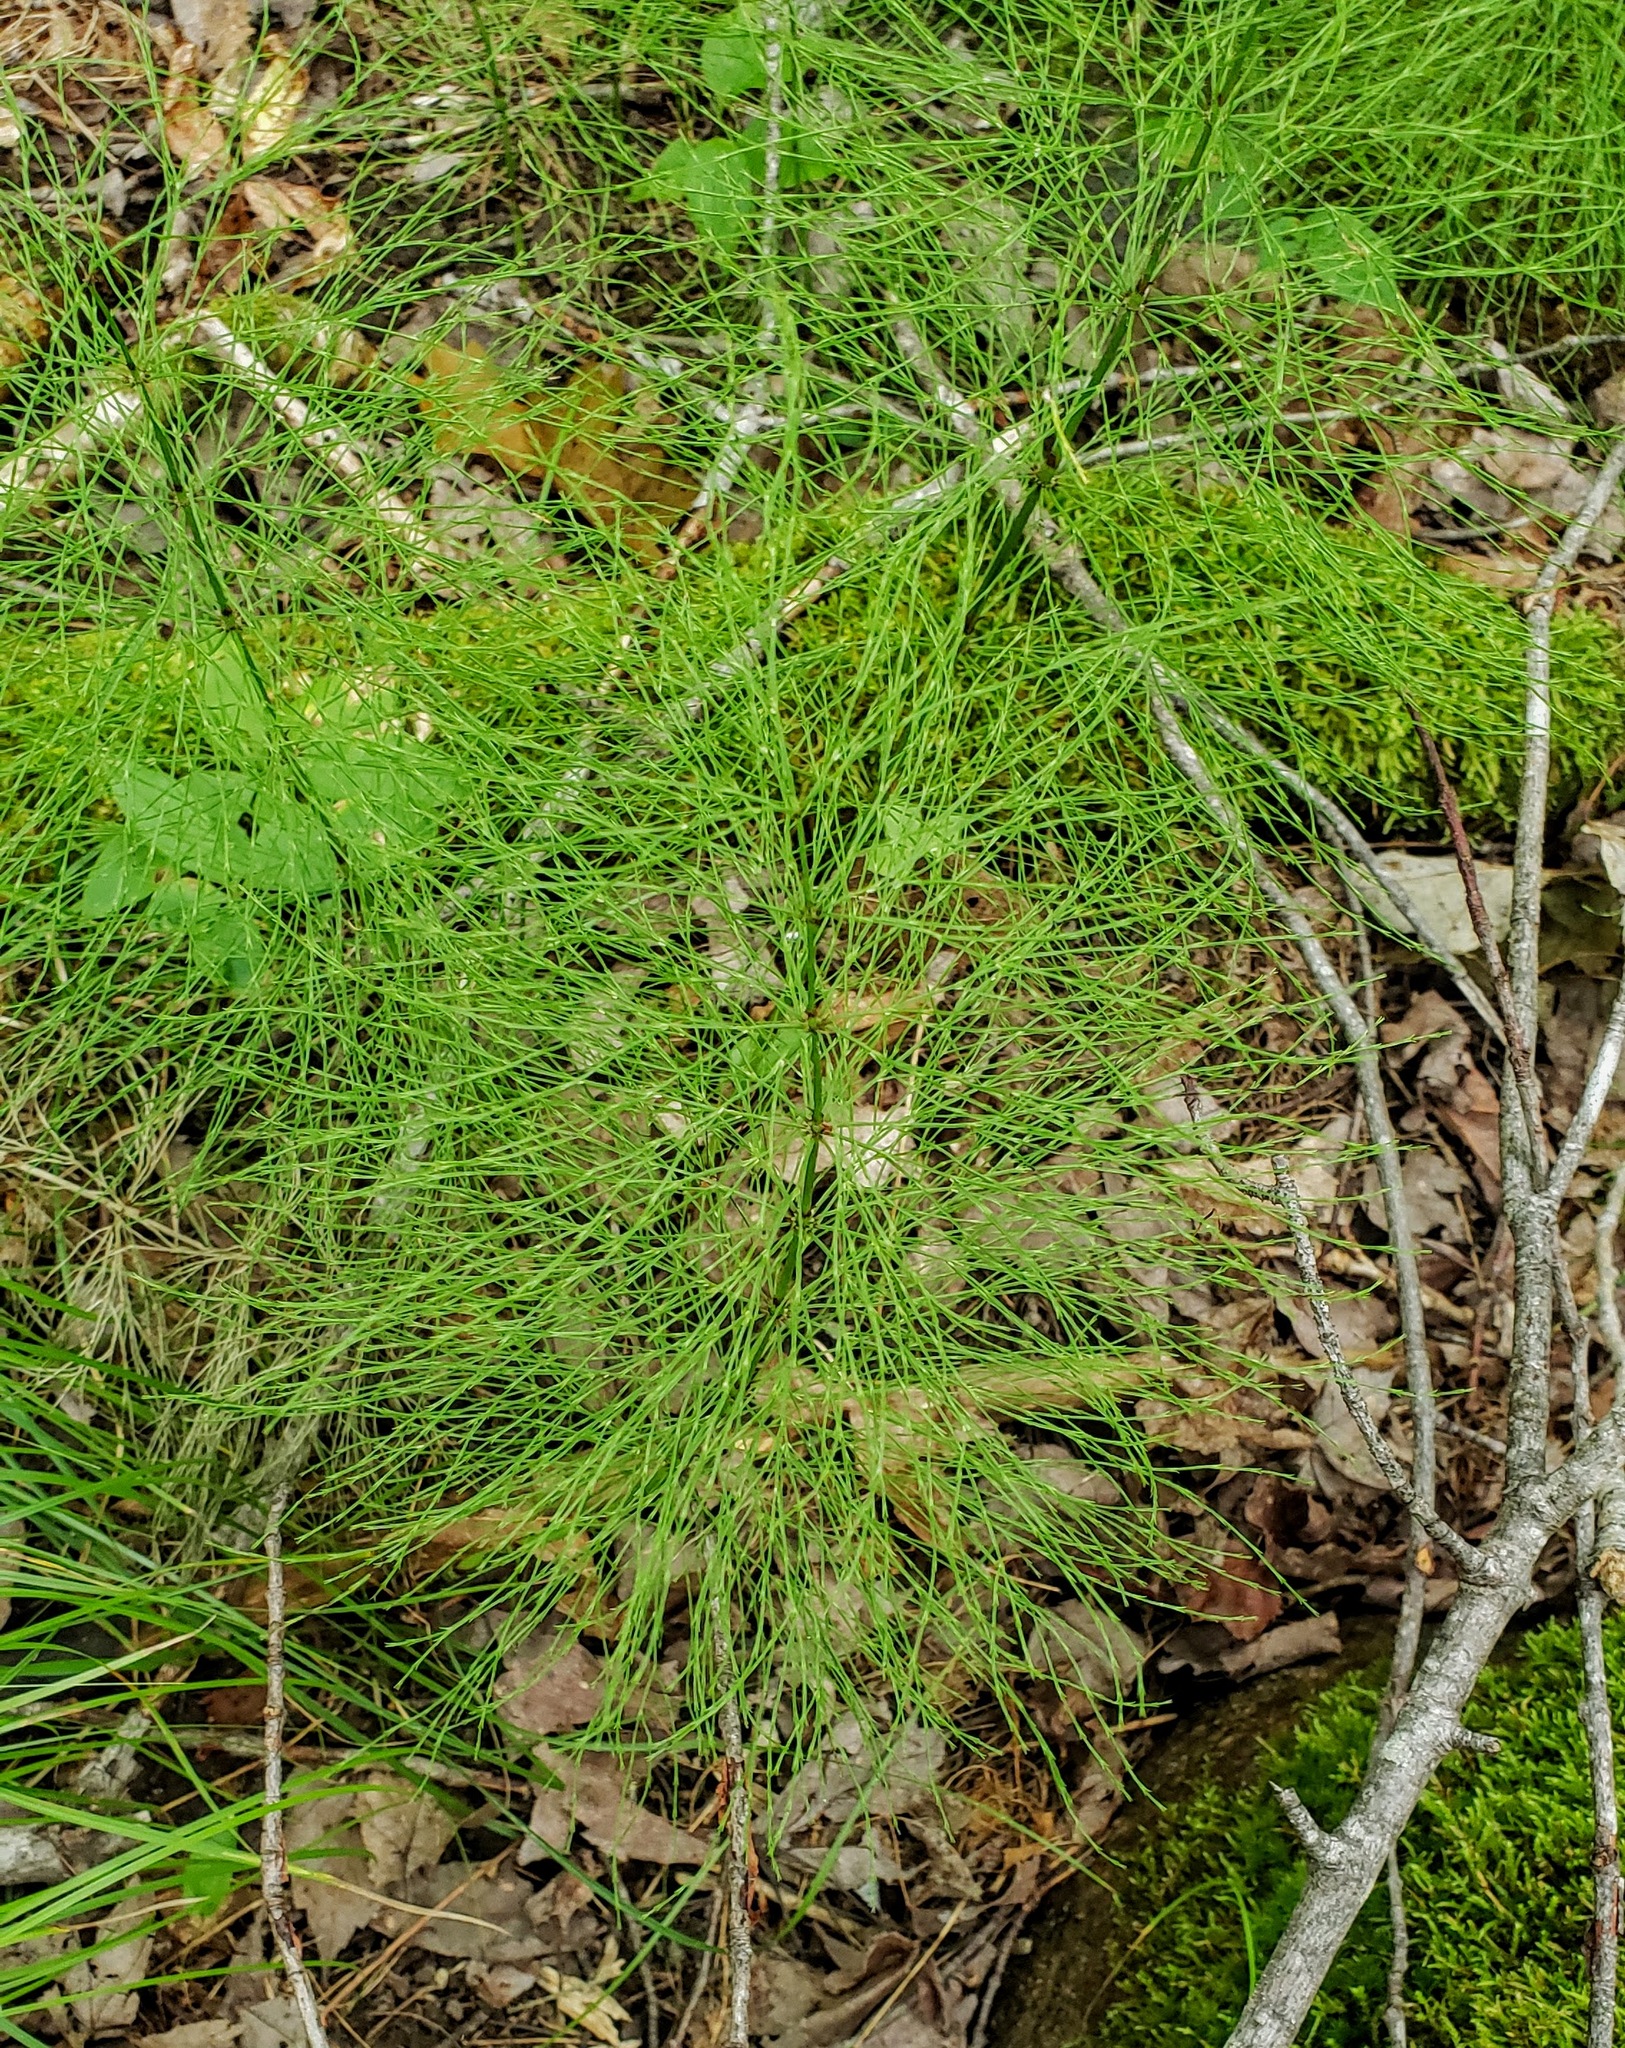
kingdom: Plantae
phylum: Tracheophyta
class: Polypodiopsida
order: Equisetales
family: Equisetaceae
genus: Equisetum
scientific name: Equisetum sylvaticum
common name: Wood horsetail
